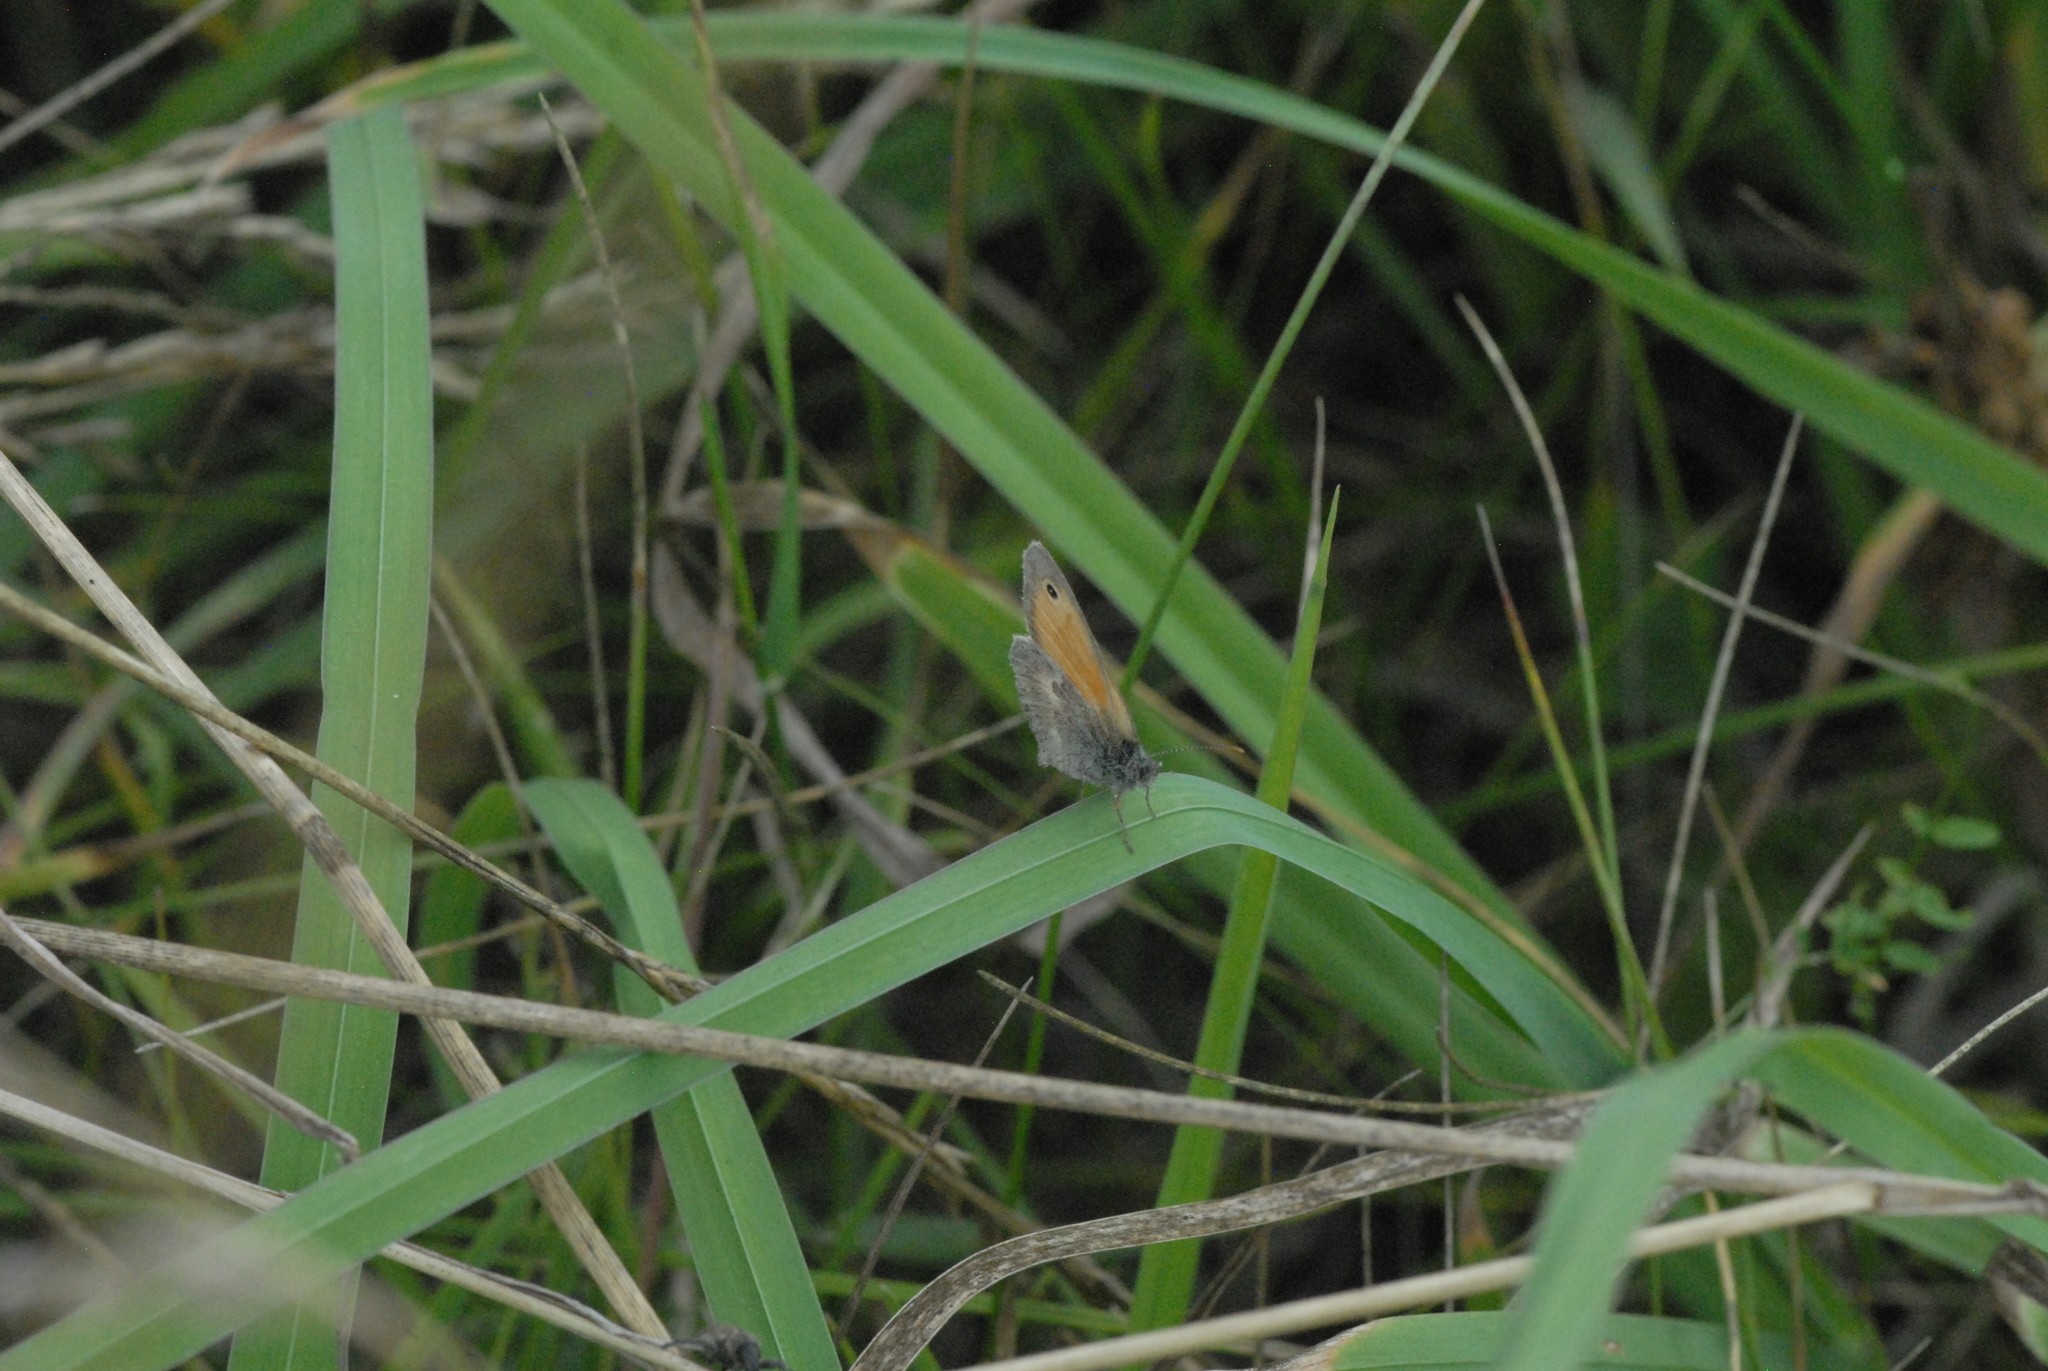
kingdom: Animalia
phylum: Arthropoda
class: Insecta
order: Lepidoptera
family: Nymphalidae
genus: Coenonympha
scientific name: Coenonympha pamphilus
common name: Small heath
